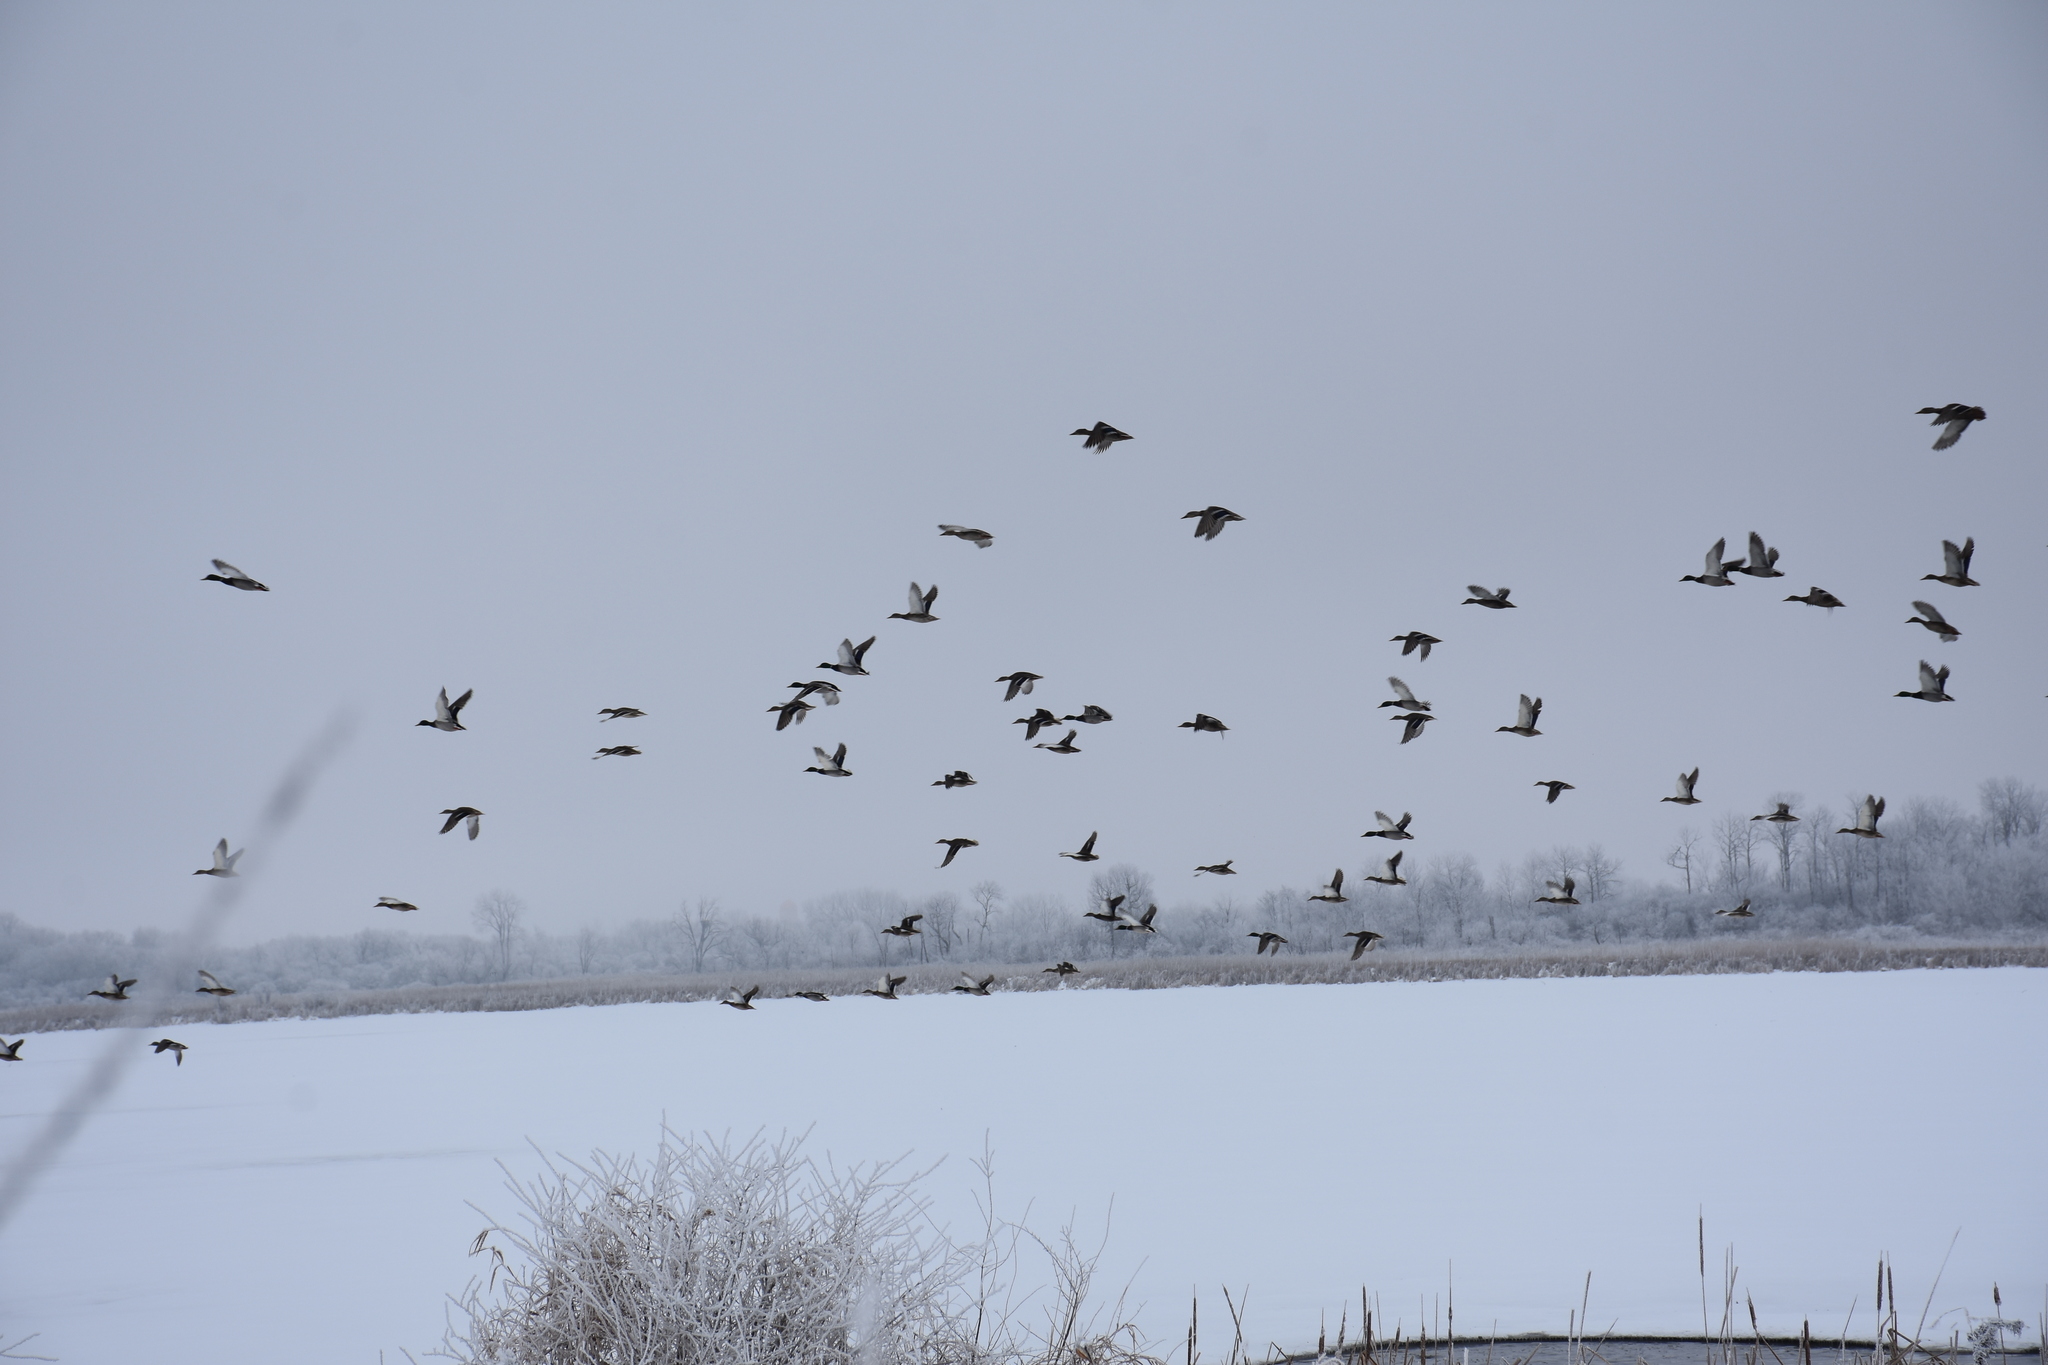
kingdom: Animalia
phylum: Chordata
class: Aves
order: Anseriformes
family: Anatidae
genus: Anas
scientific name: Anas platyrhynchos
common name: Mallard
